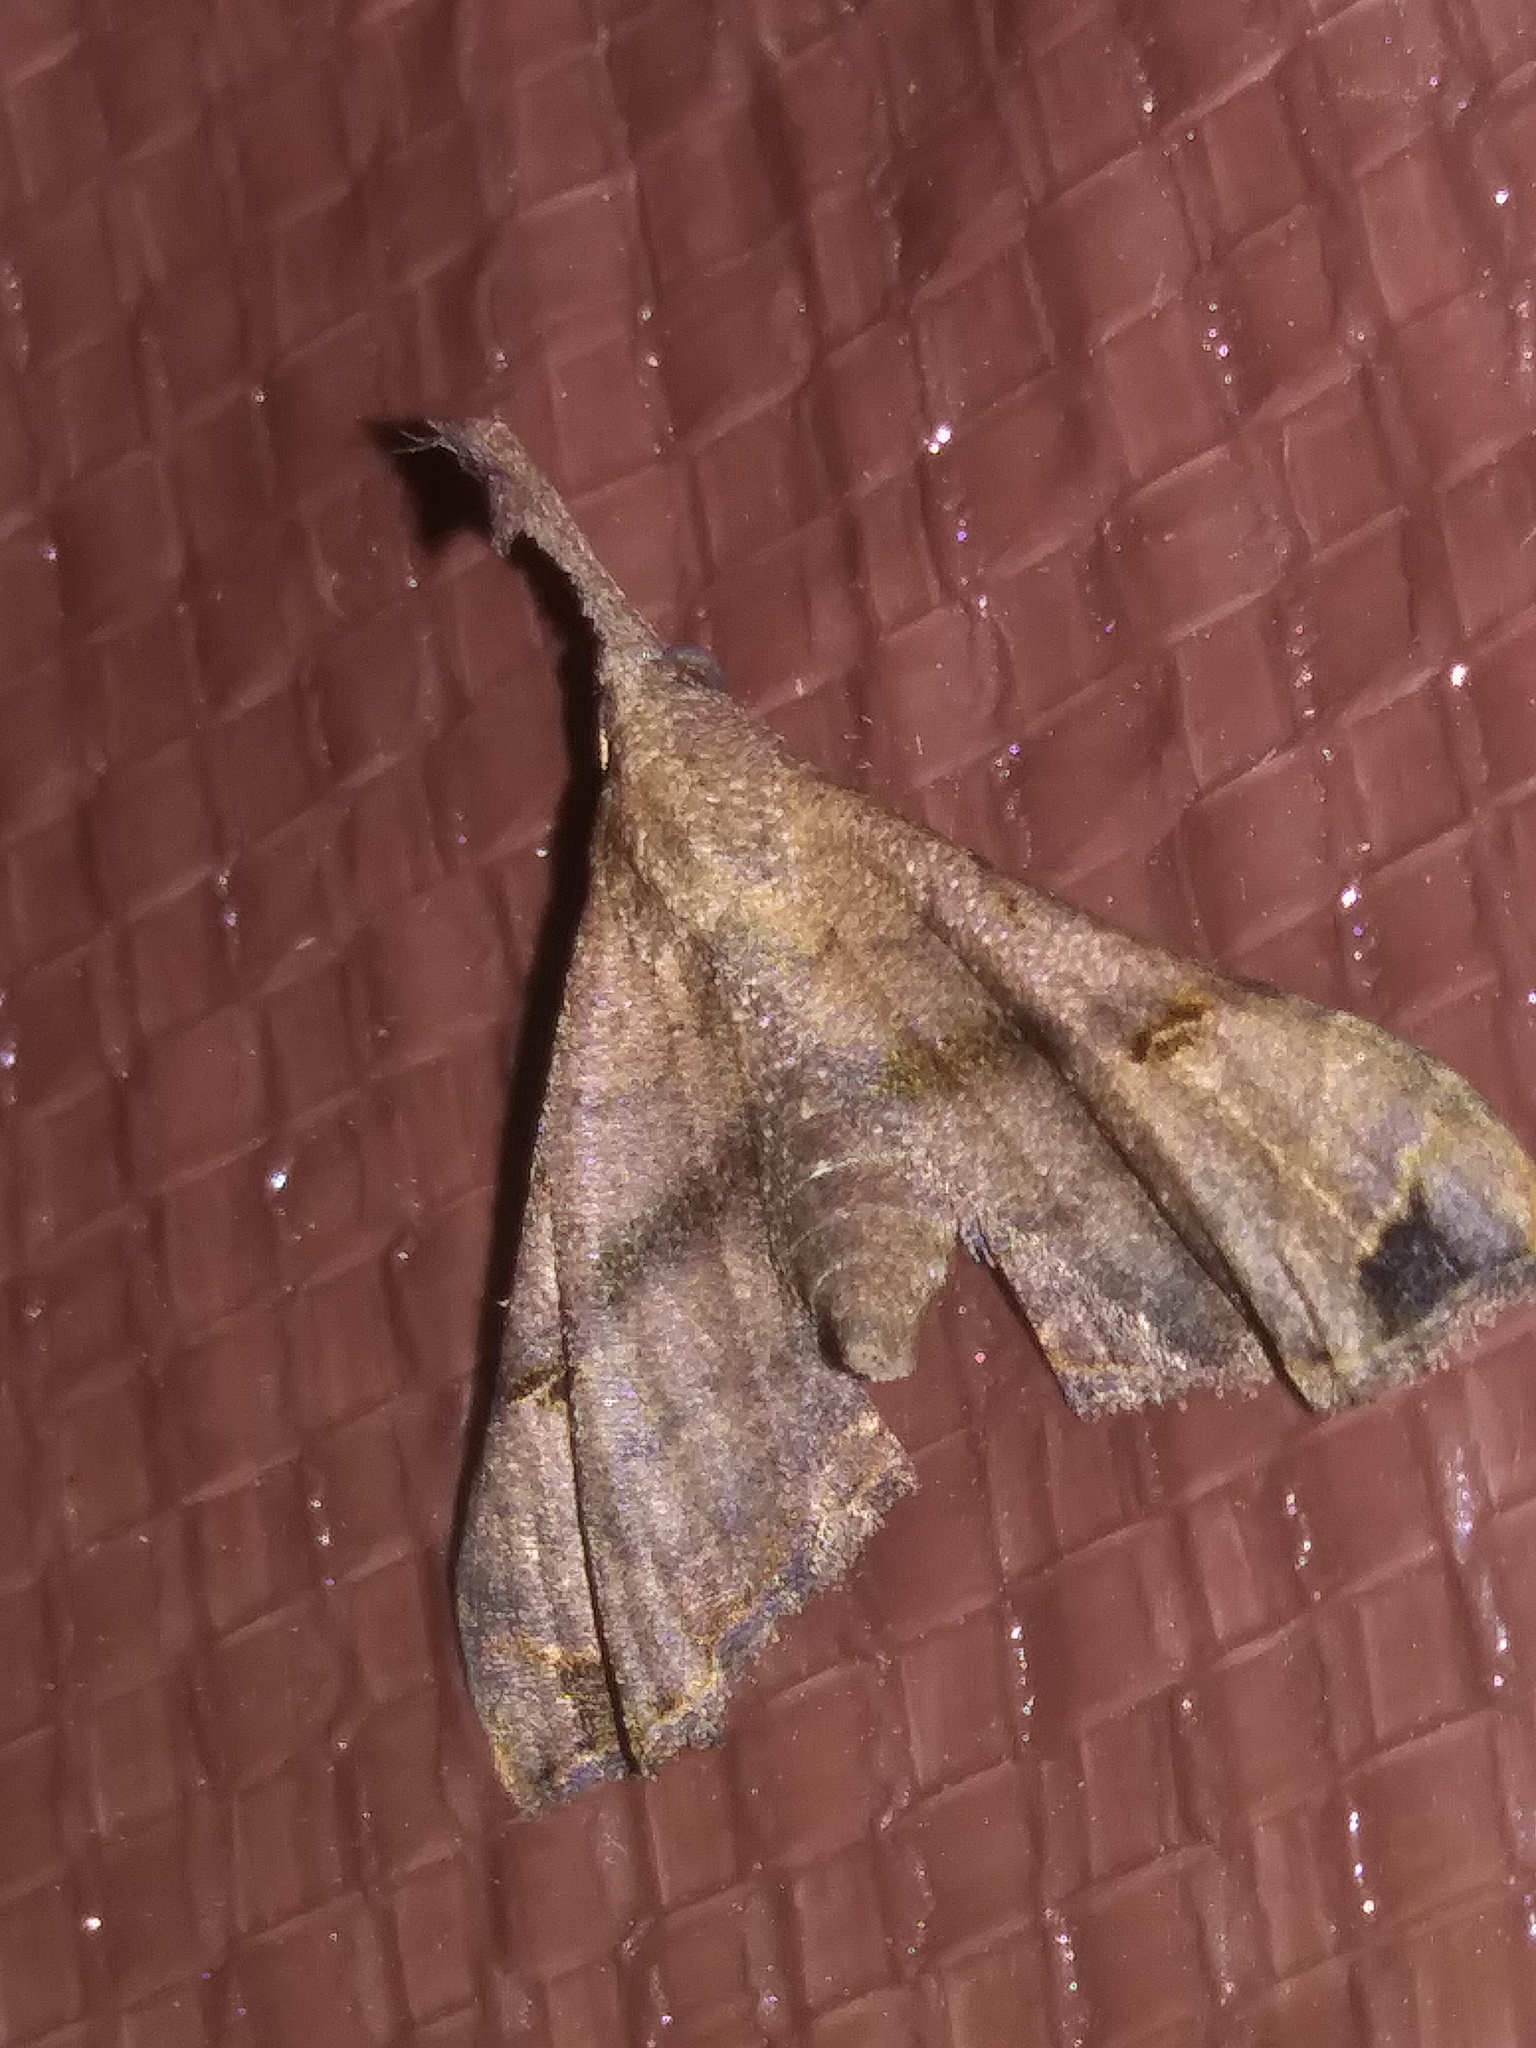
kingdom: Animalia
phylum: Arthropoda
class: Insecta
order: Lepidoptera
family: Erebidae
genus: Palthis
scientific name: Palthis asopialis
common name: Faint-spotted palthis moth
